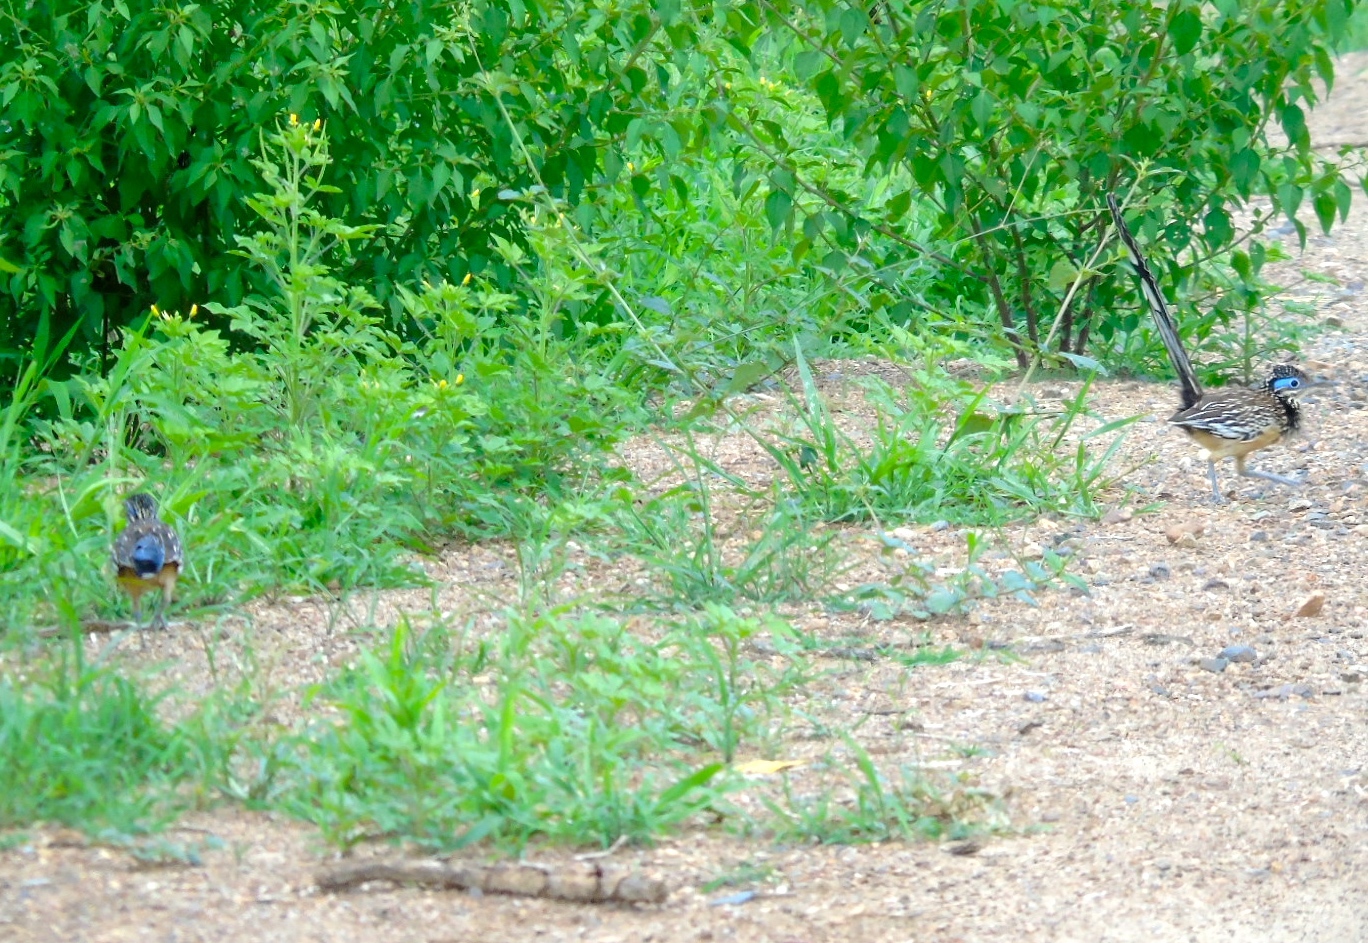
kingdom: Animalia
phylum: Chordata
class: Aves
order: Cuculiformes
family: Cuculidae
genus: Geococcyx
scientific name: Geococcyx velox
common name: Lesser roadrunner
